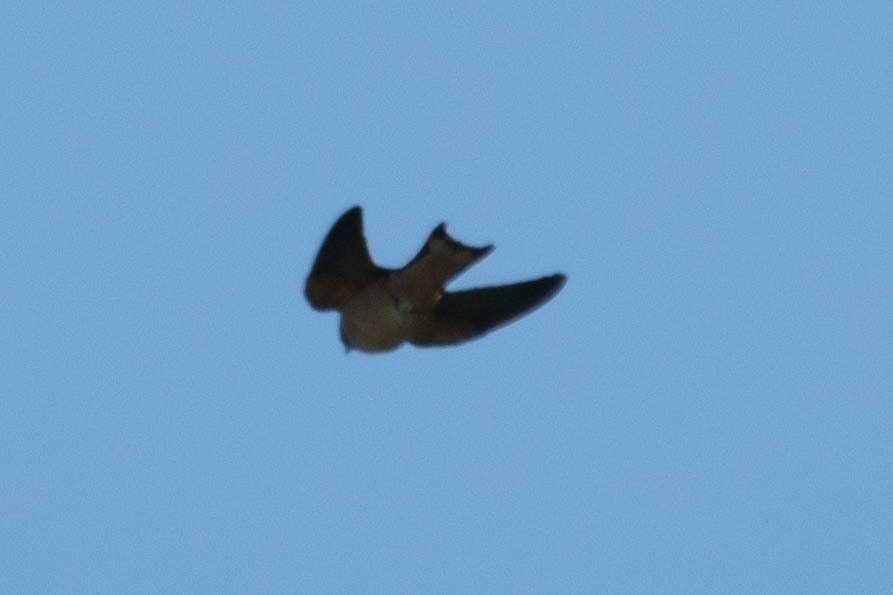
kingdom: Animalia
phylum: Chordata
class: Aves
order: Passeriformes
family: Hirundinidae
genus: Hirundo
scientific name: Hirundo rustica
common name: Barn swallow
